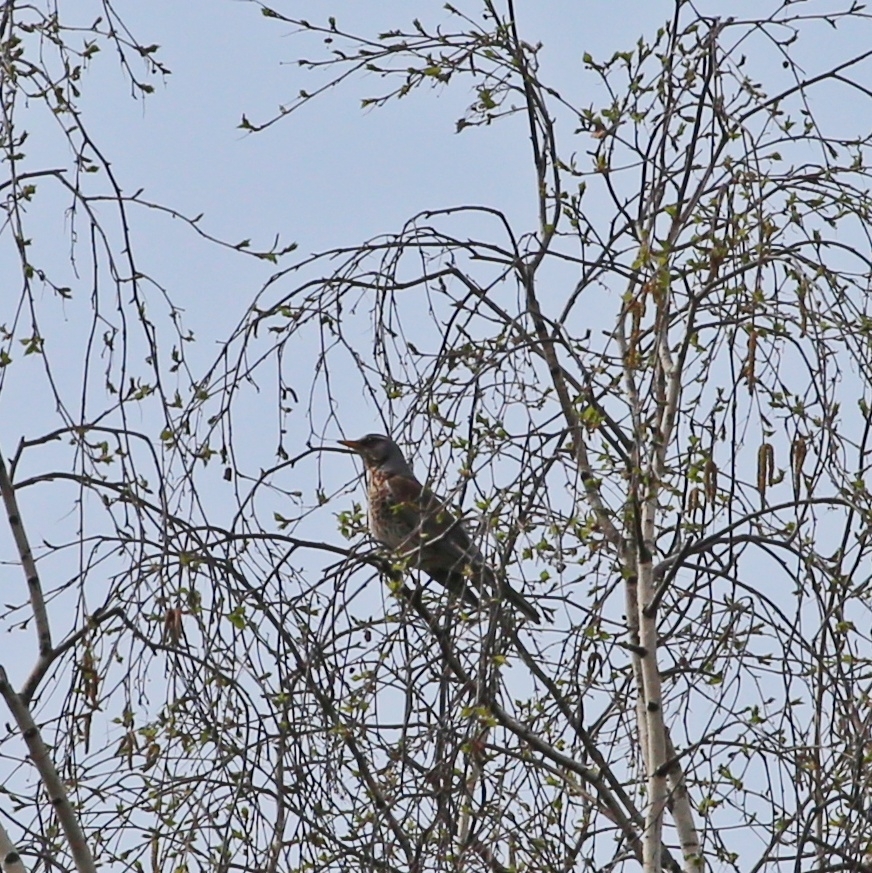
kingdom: Animalia
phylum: Chordata
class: Aves
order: Passeriformes
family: Turdidae
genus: Turdus
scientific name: Turdus pilaris
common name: Fieldfare
